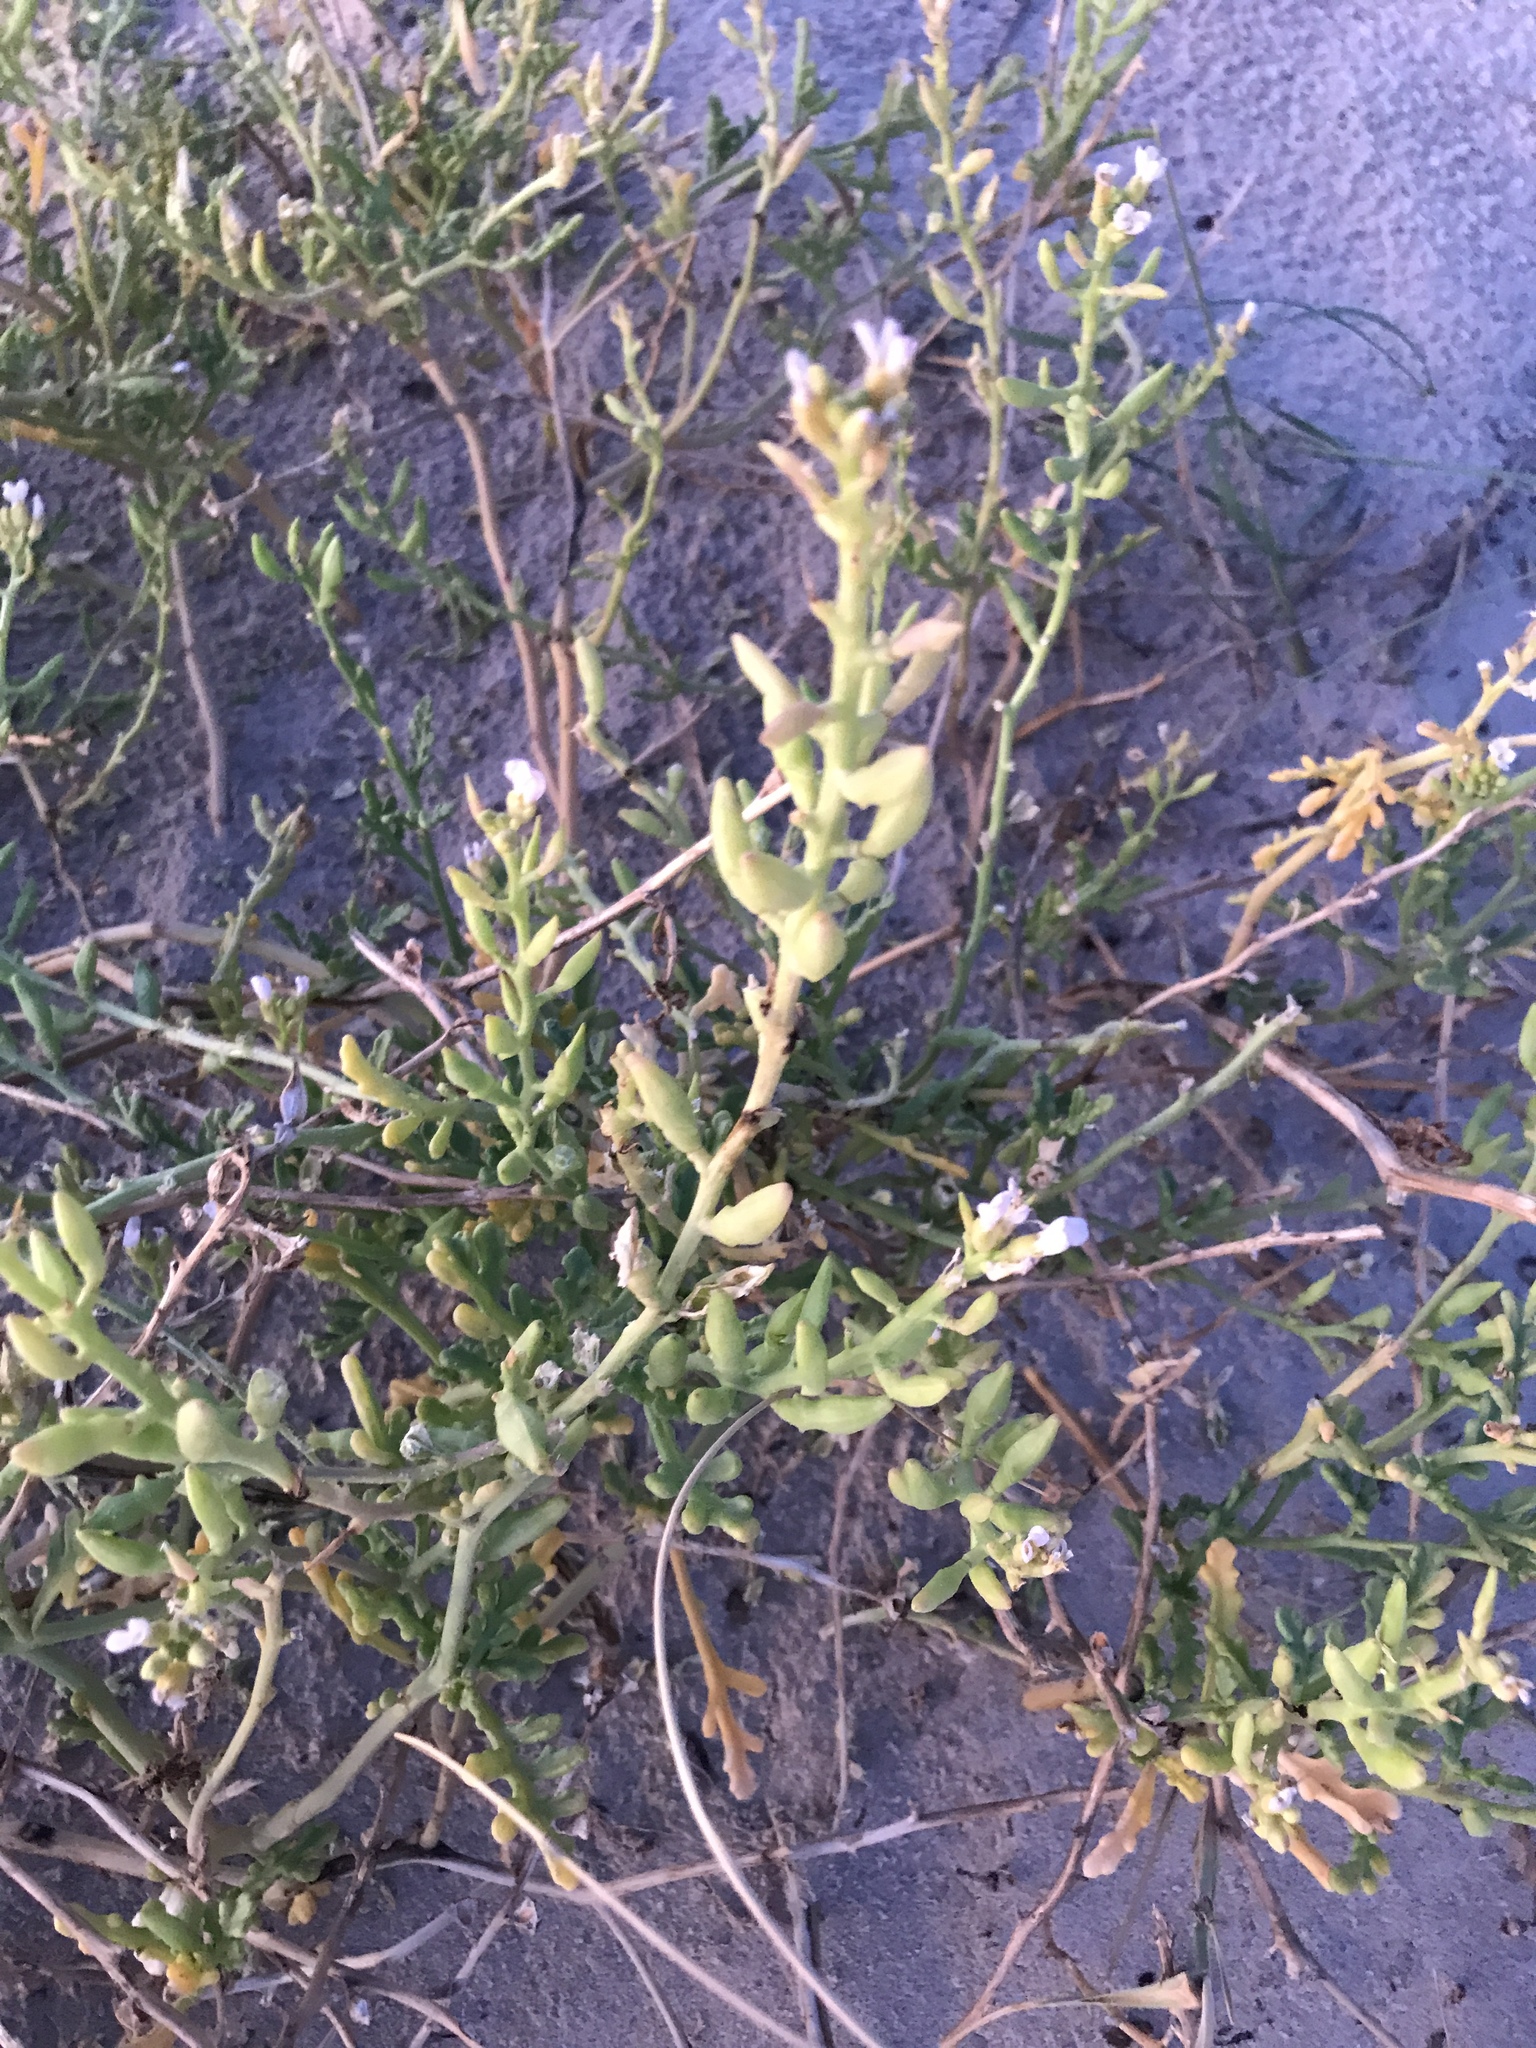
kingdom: Plantae
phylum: Tracheophyta
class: Magnoliopsida
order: Brassicales
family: Brassicaceae
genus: Cakile
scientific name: Cakile maritima
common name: Sea rocket
